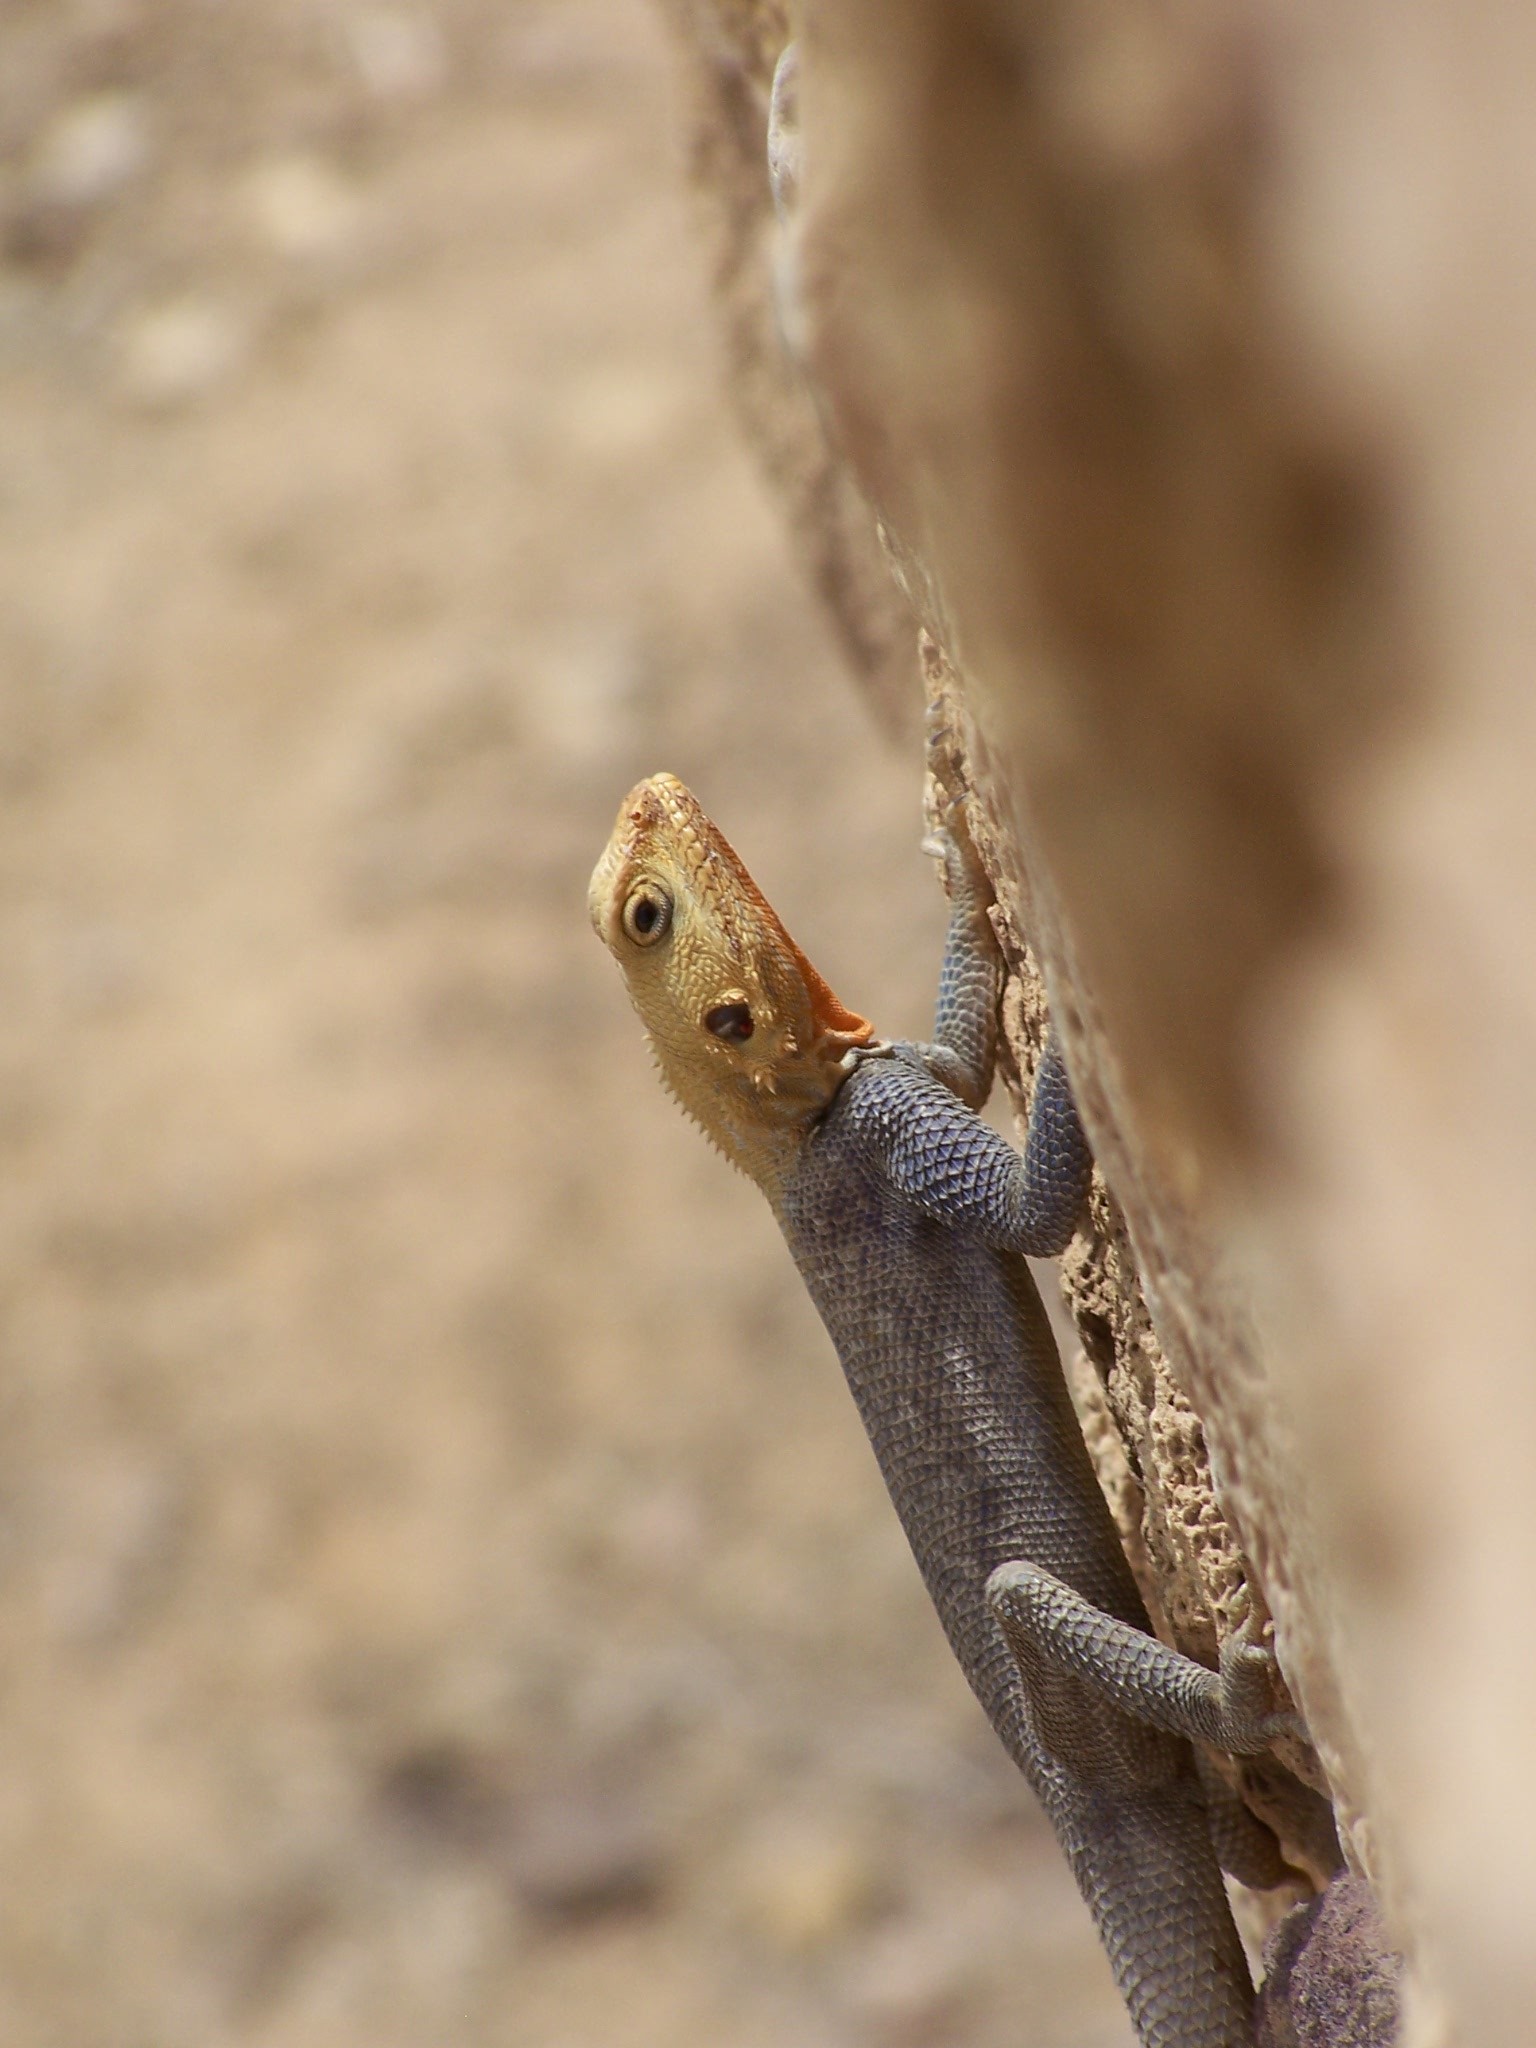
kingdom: Animalia
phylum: Chordata
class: Squamata
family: Agamidae
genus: Agama
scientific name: Agama agama
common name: Common agama
